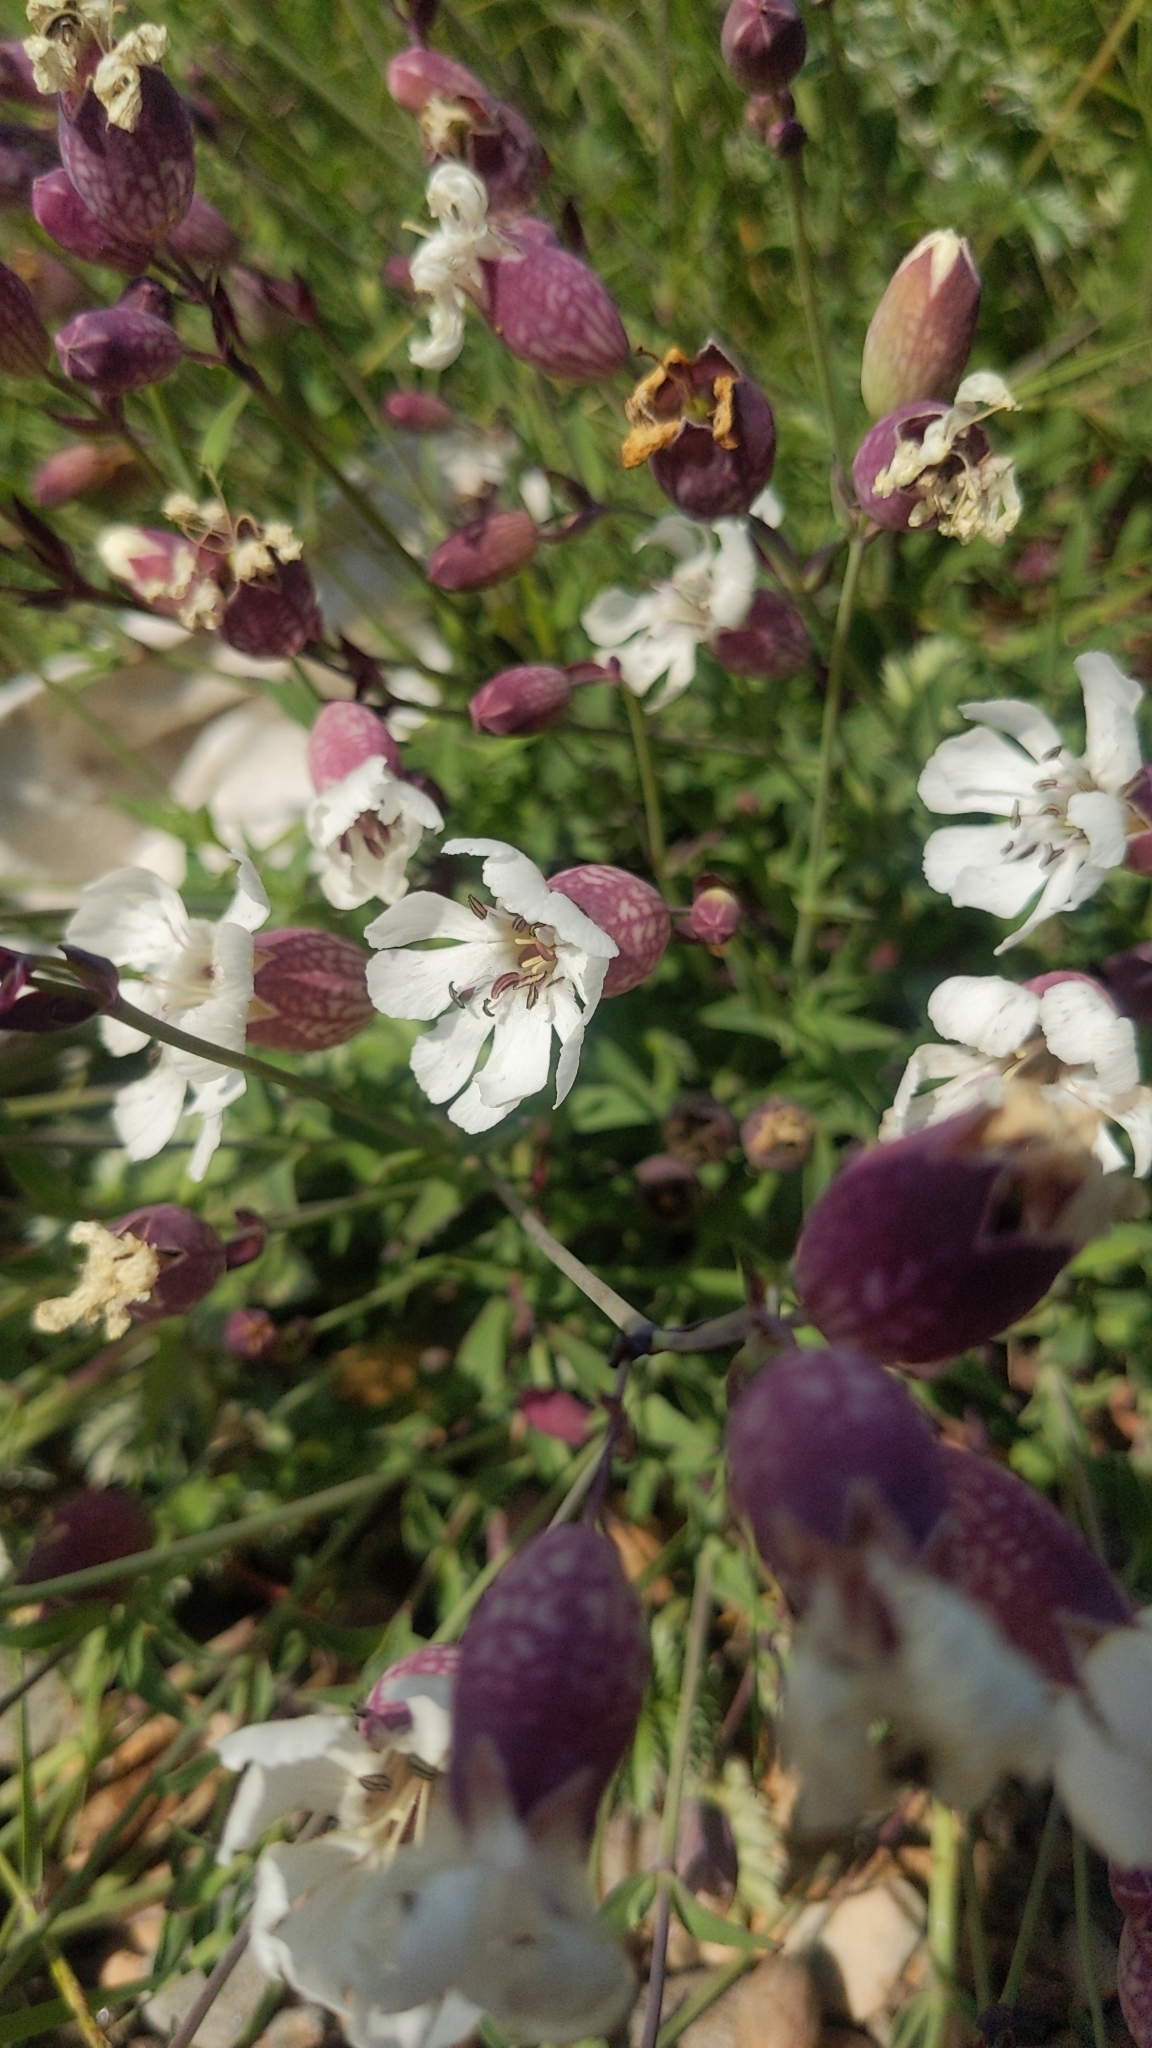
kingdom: Plantae
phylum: Tracheophyta
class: Magnoliopsida
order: Caryophyllales
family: Caryophyllaceae
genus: Silene
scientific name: Silene uniflora
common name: Sea campion
